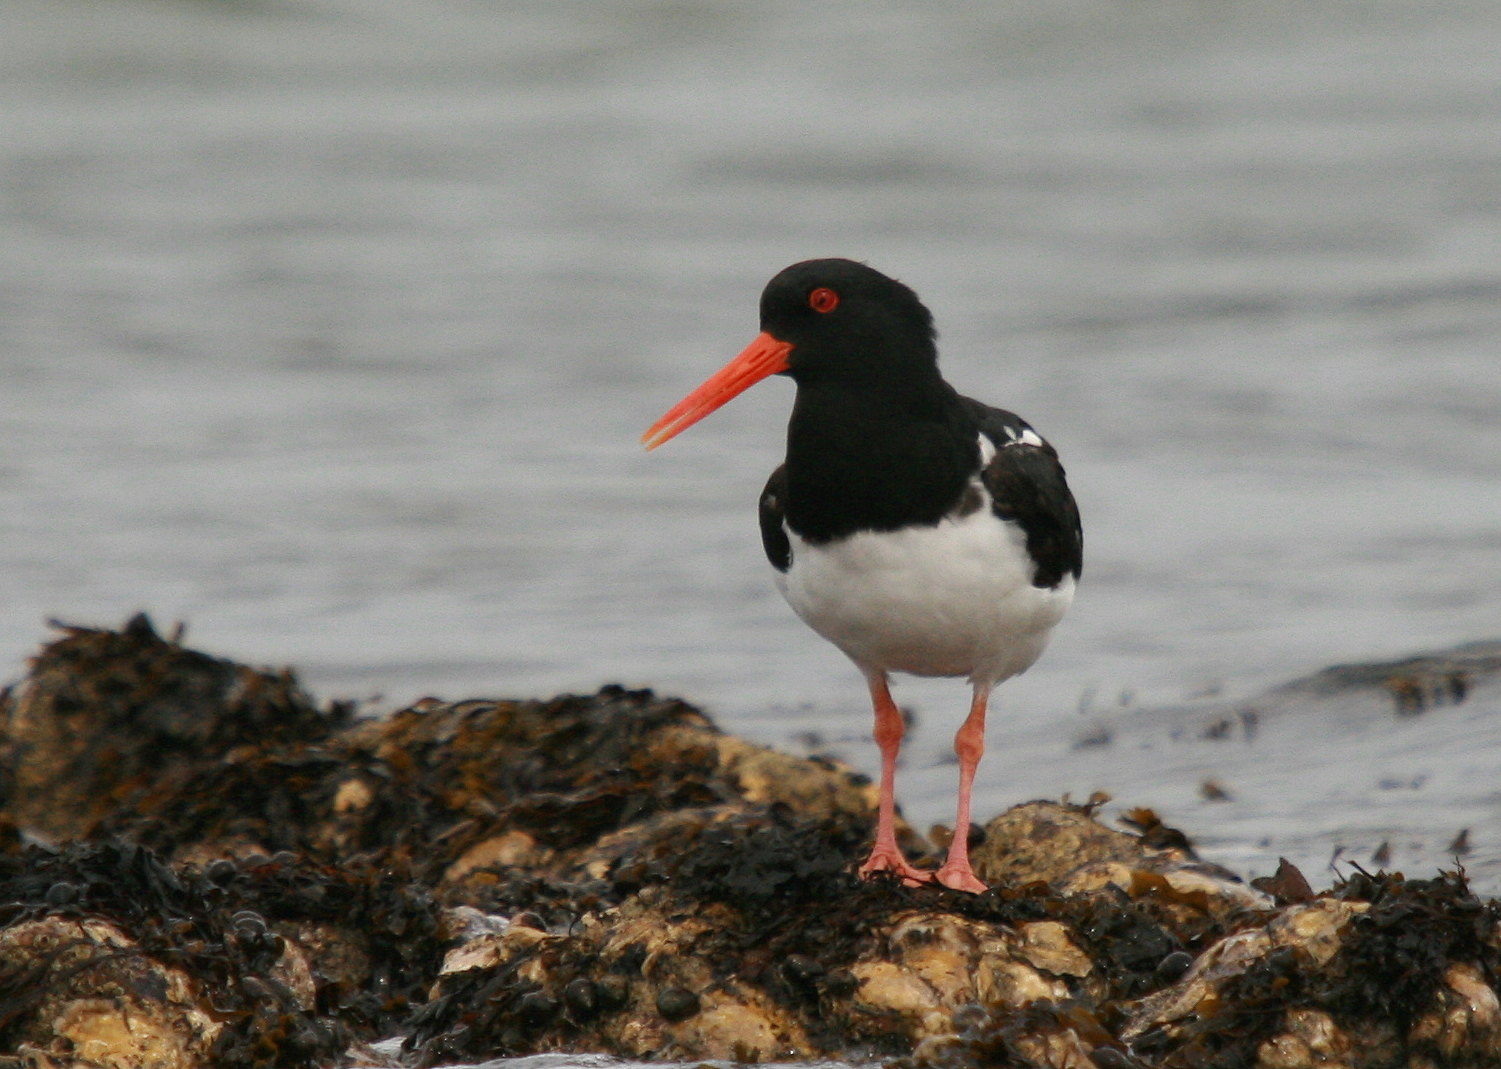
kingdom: Animalia
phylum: Chordata
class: Aves
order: Charadriiformes
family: Haematopodidae
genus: Haematopus
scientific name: Haematopus ostralegus
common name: Eurasian oystercatcher
